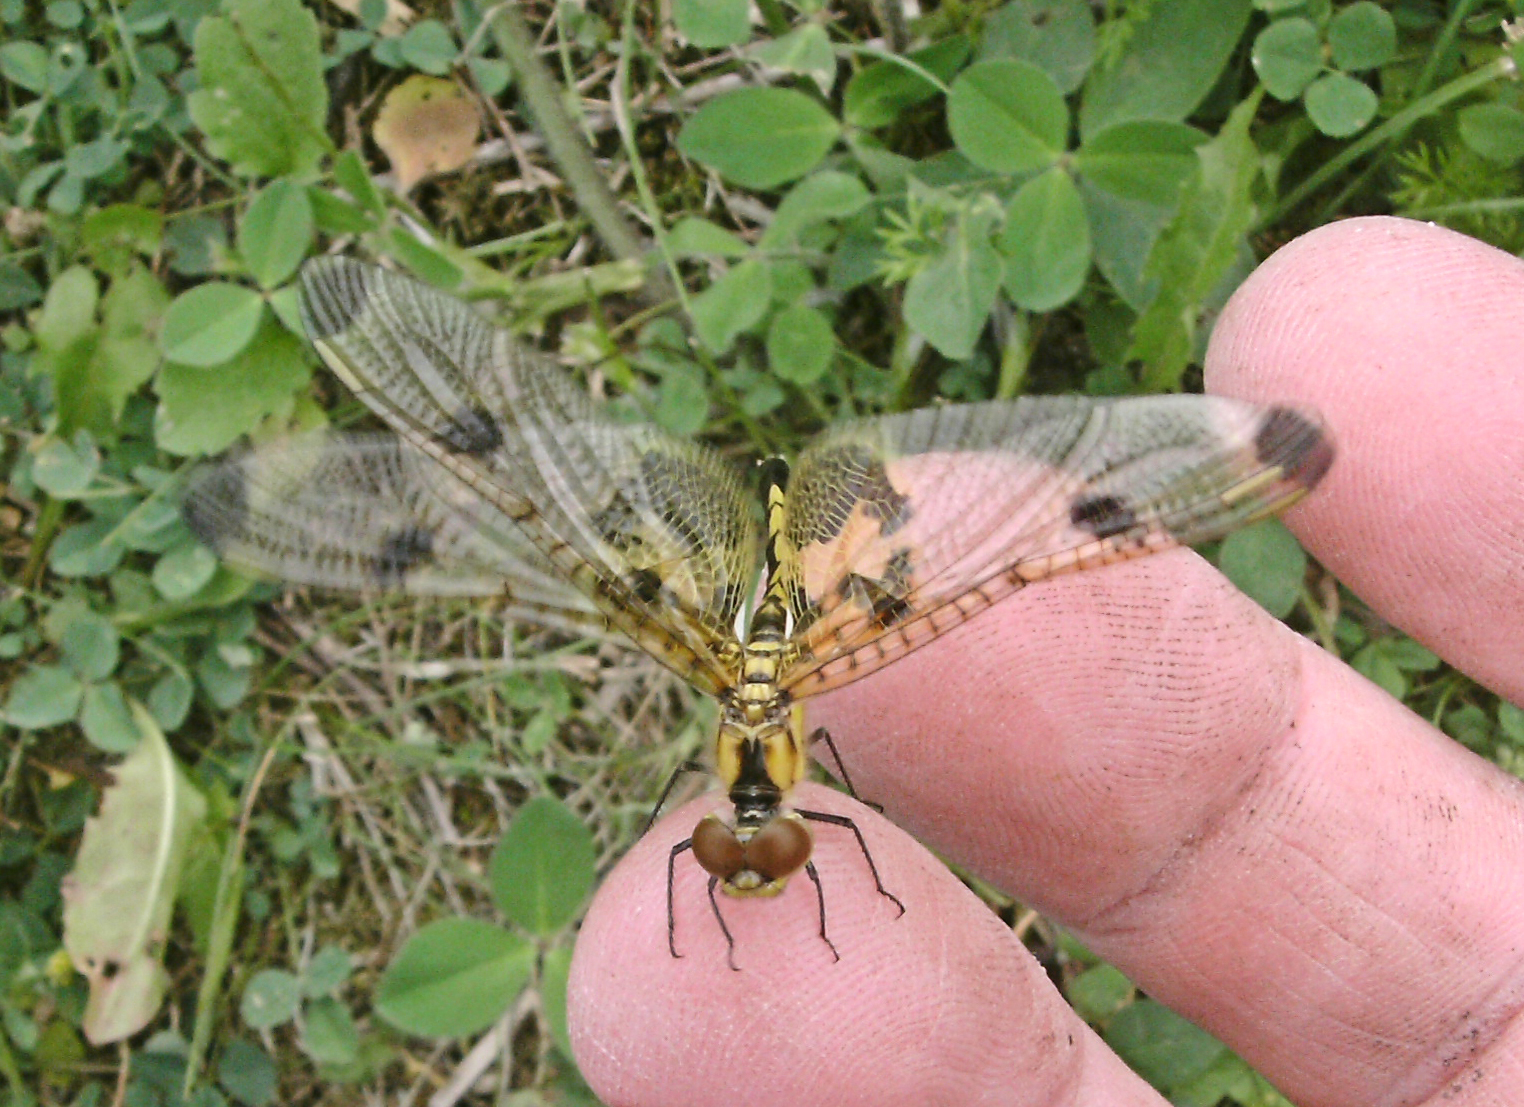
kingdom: Animalia
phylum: Arthropoda
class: Insecta
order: Odonata
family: Libellulidae
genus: Celithemis
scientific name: Celithemis elisa
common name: Calico pennant
